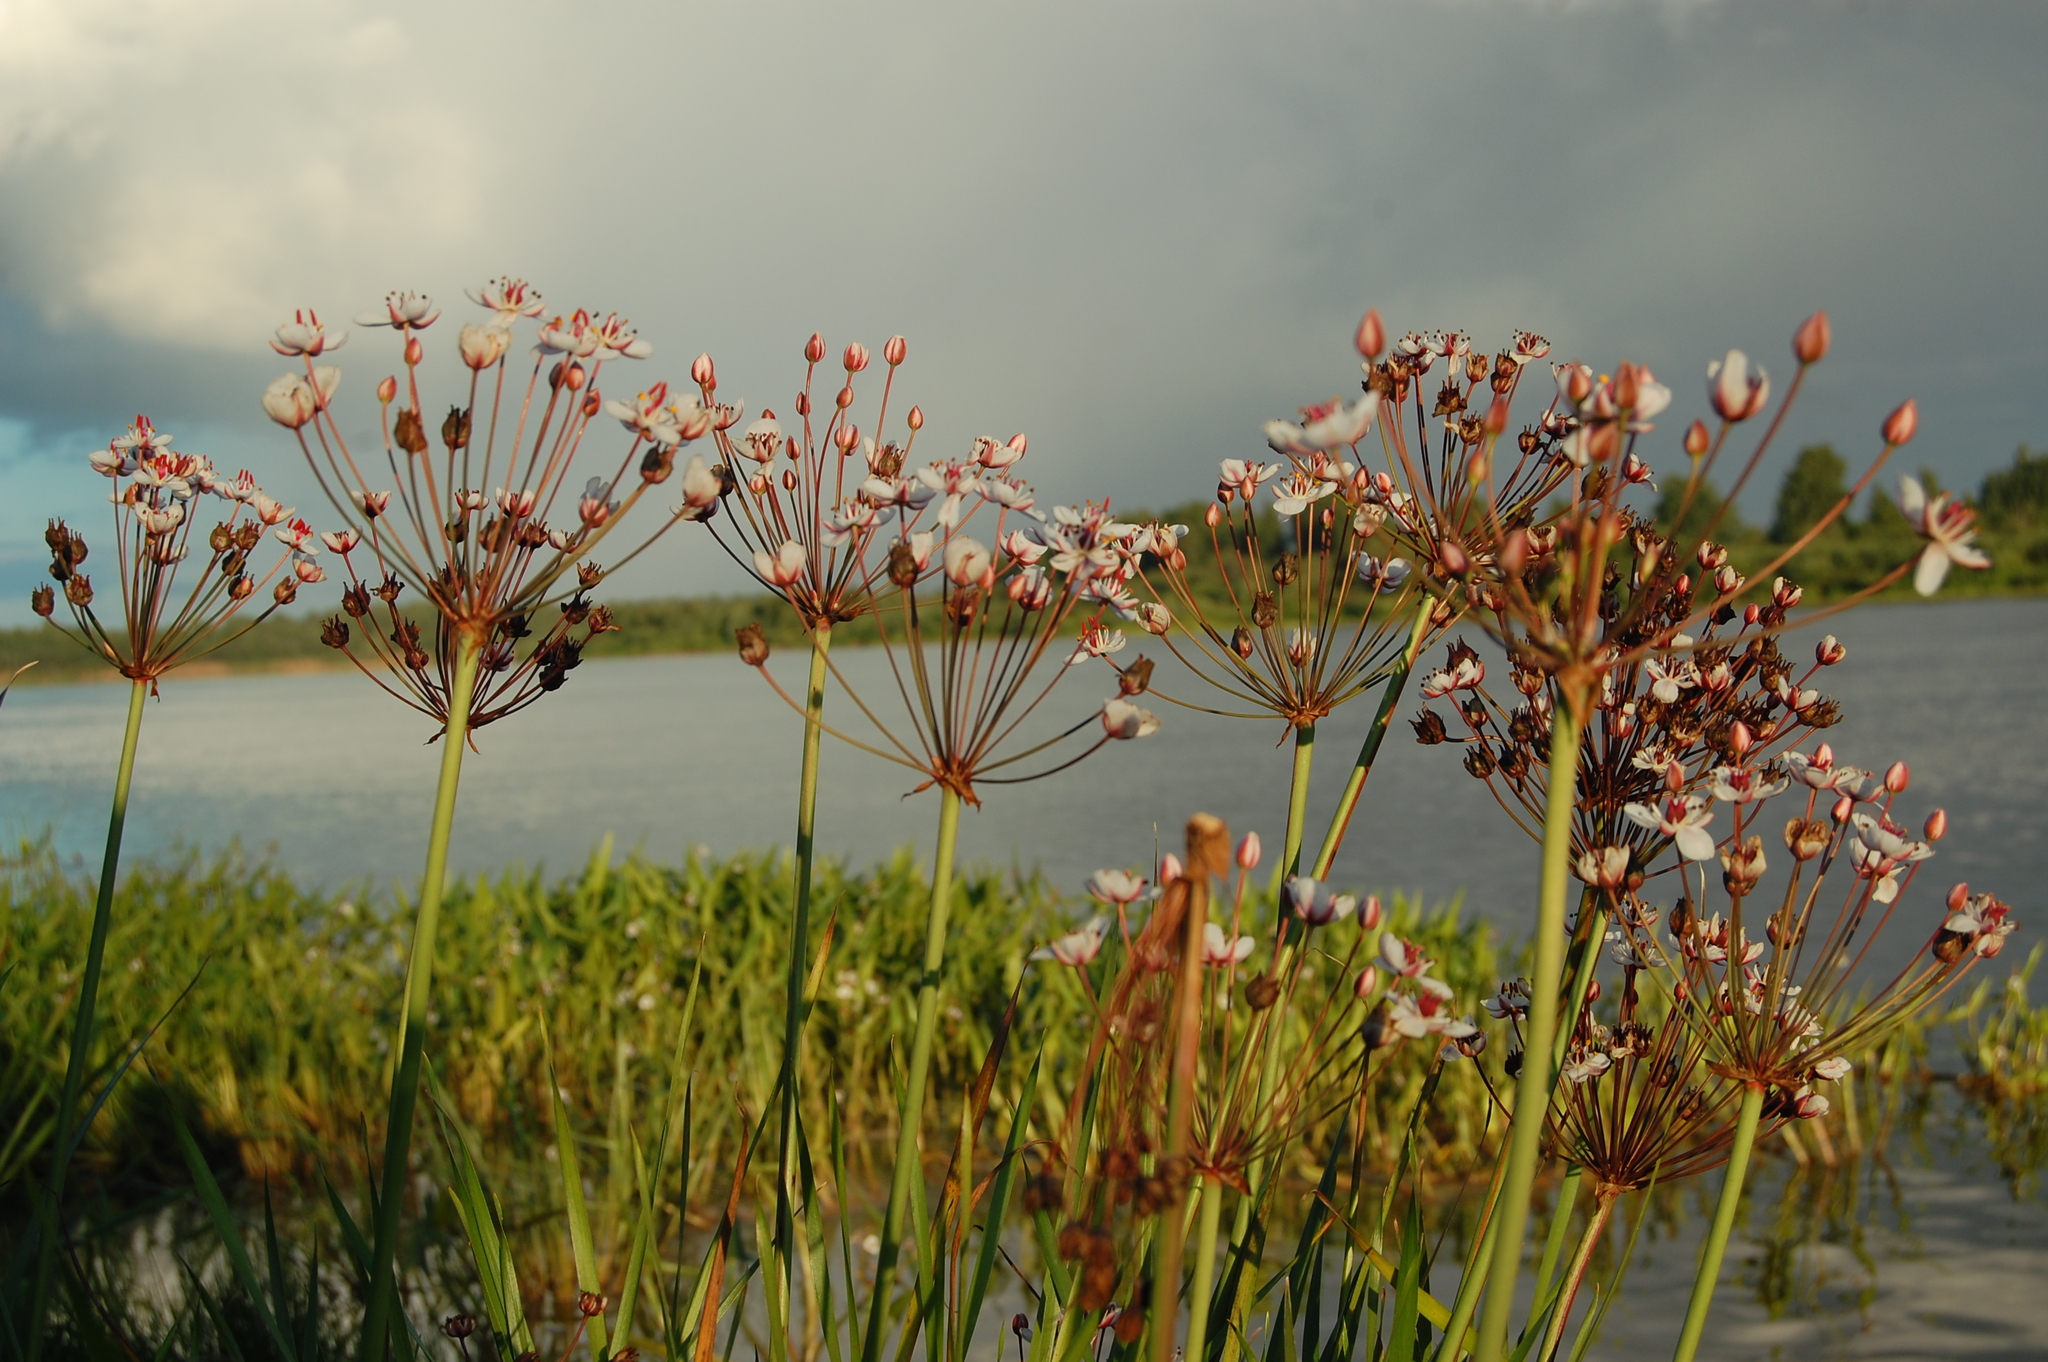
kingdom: Plantae
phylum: Tracheophyta
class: Liliopsida
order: Alismatales
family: Butomaceae
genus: Butomus
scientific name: Butomus umbellatus
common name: Flowering-rush
